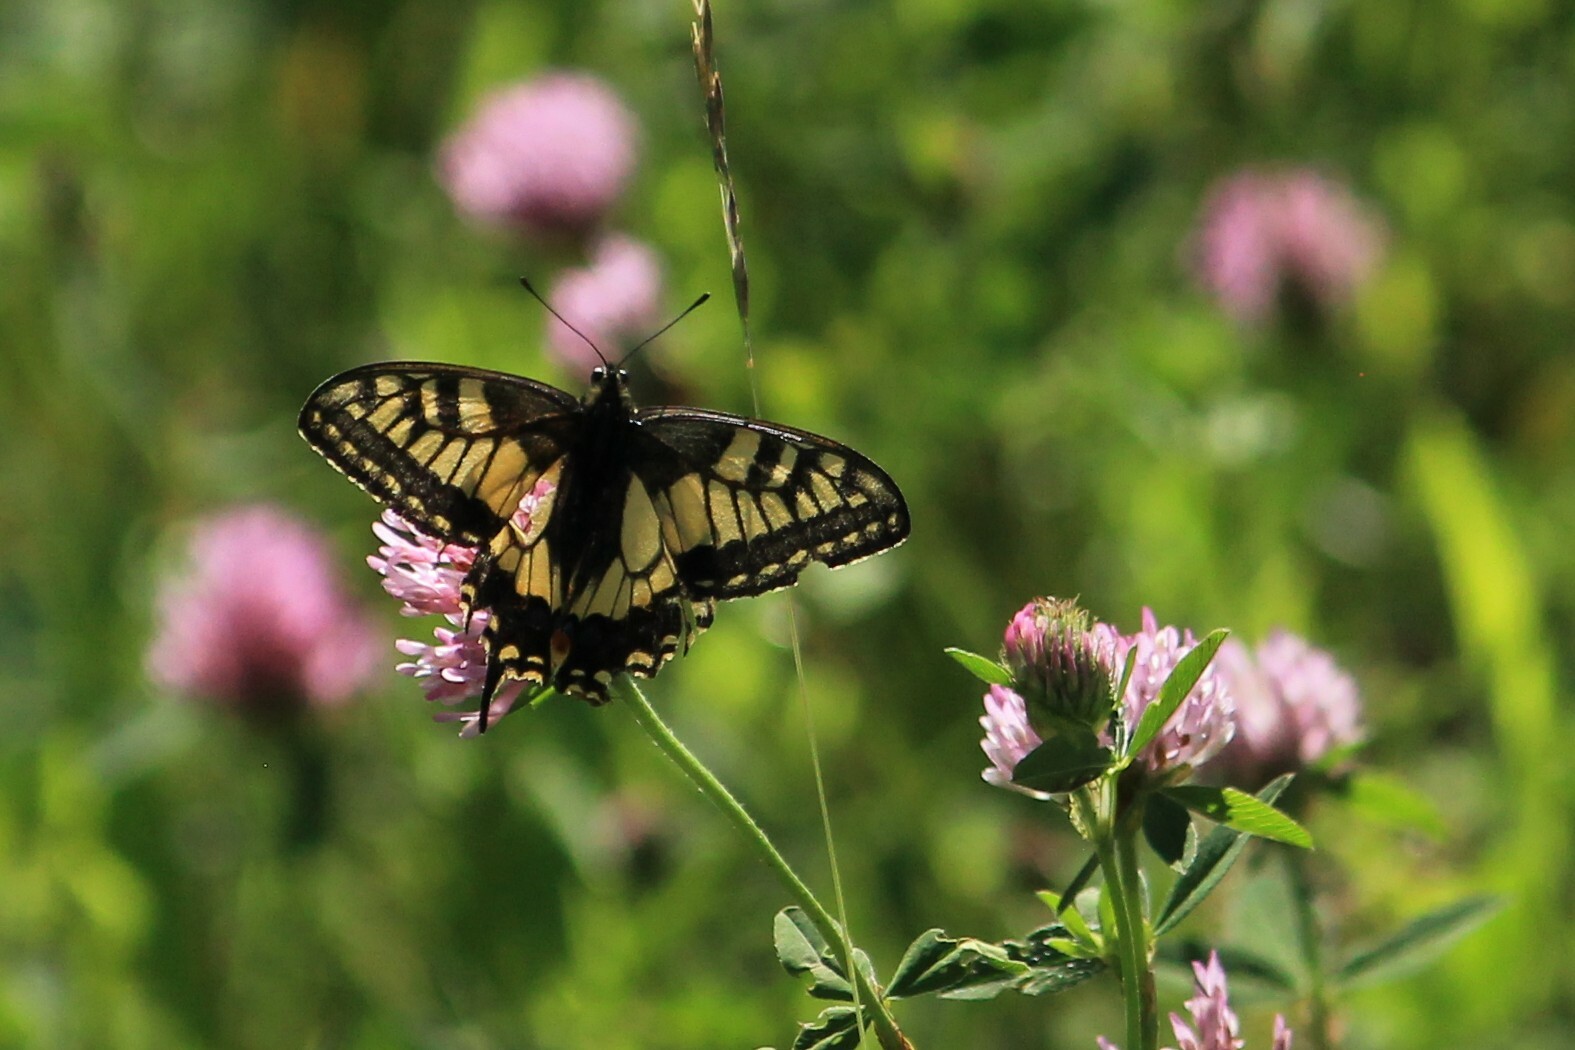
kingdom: Animalia
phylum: Arthropoda
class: Insecta
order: Lepidoptera
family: Papilionidae
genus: Papilio
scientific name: Papilio machaon
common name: Swallowtail
